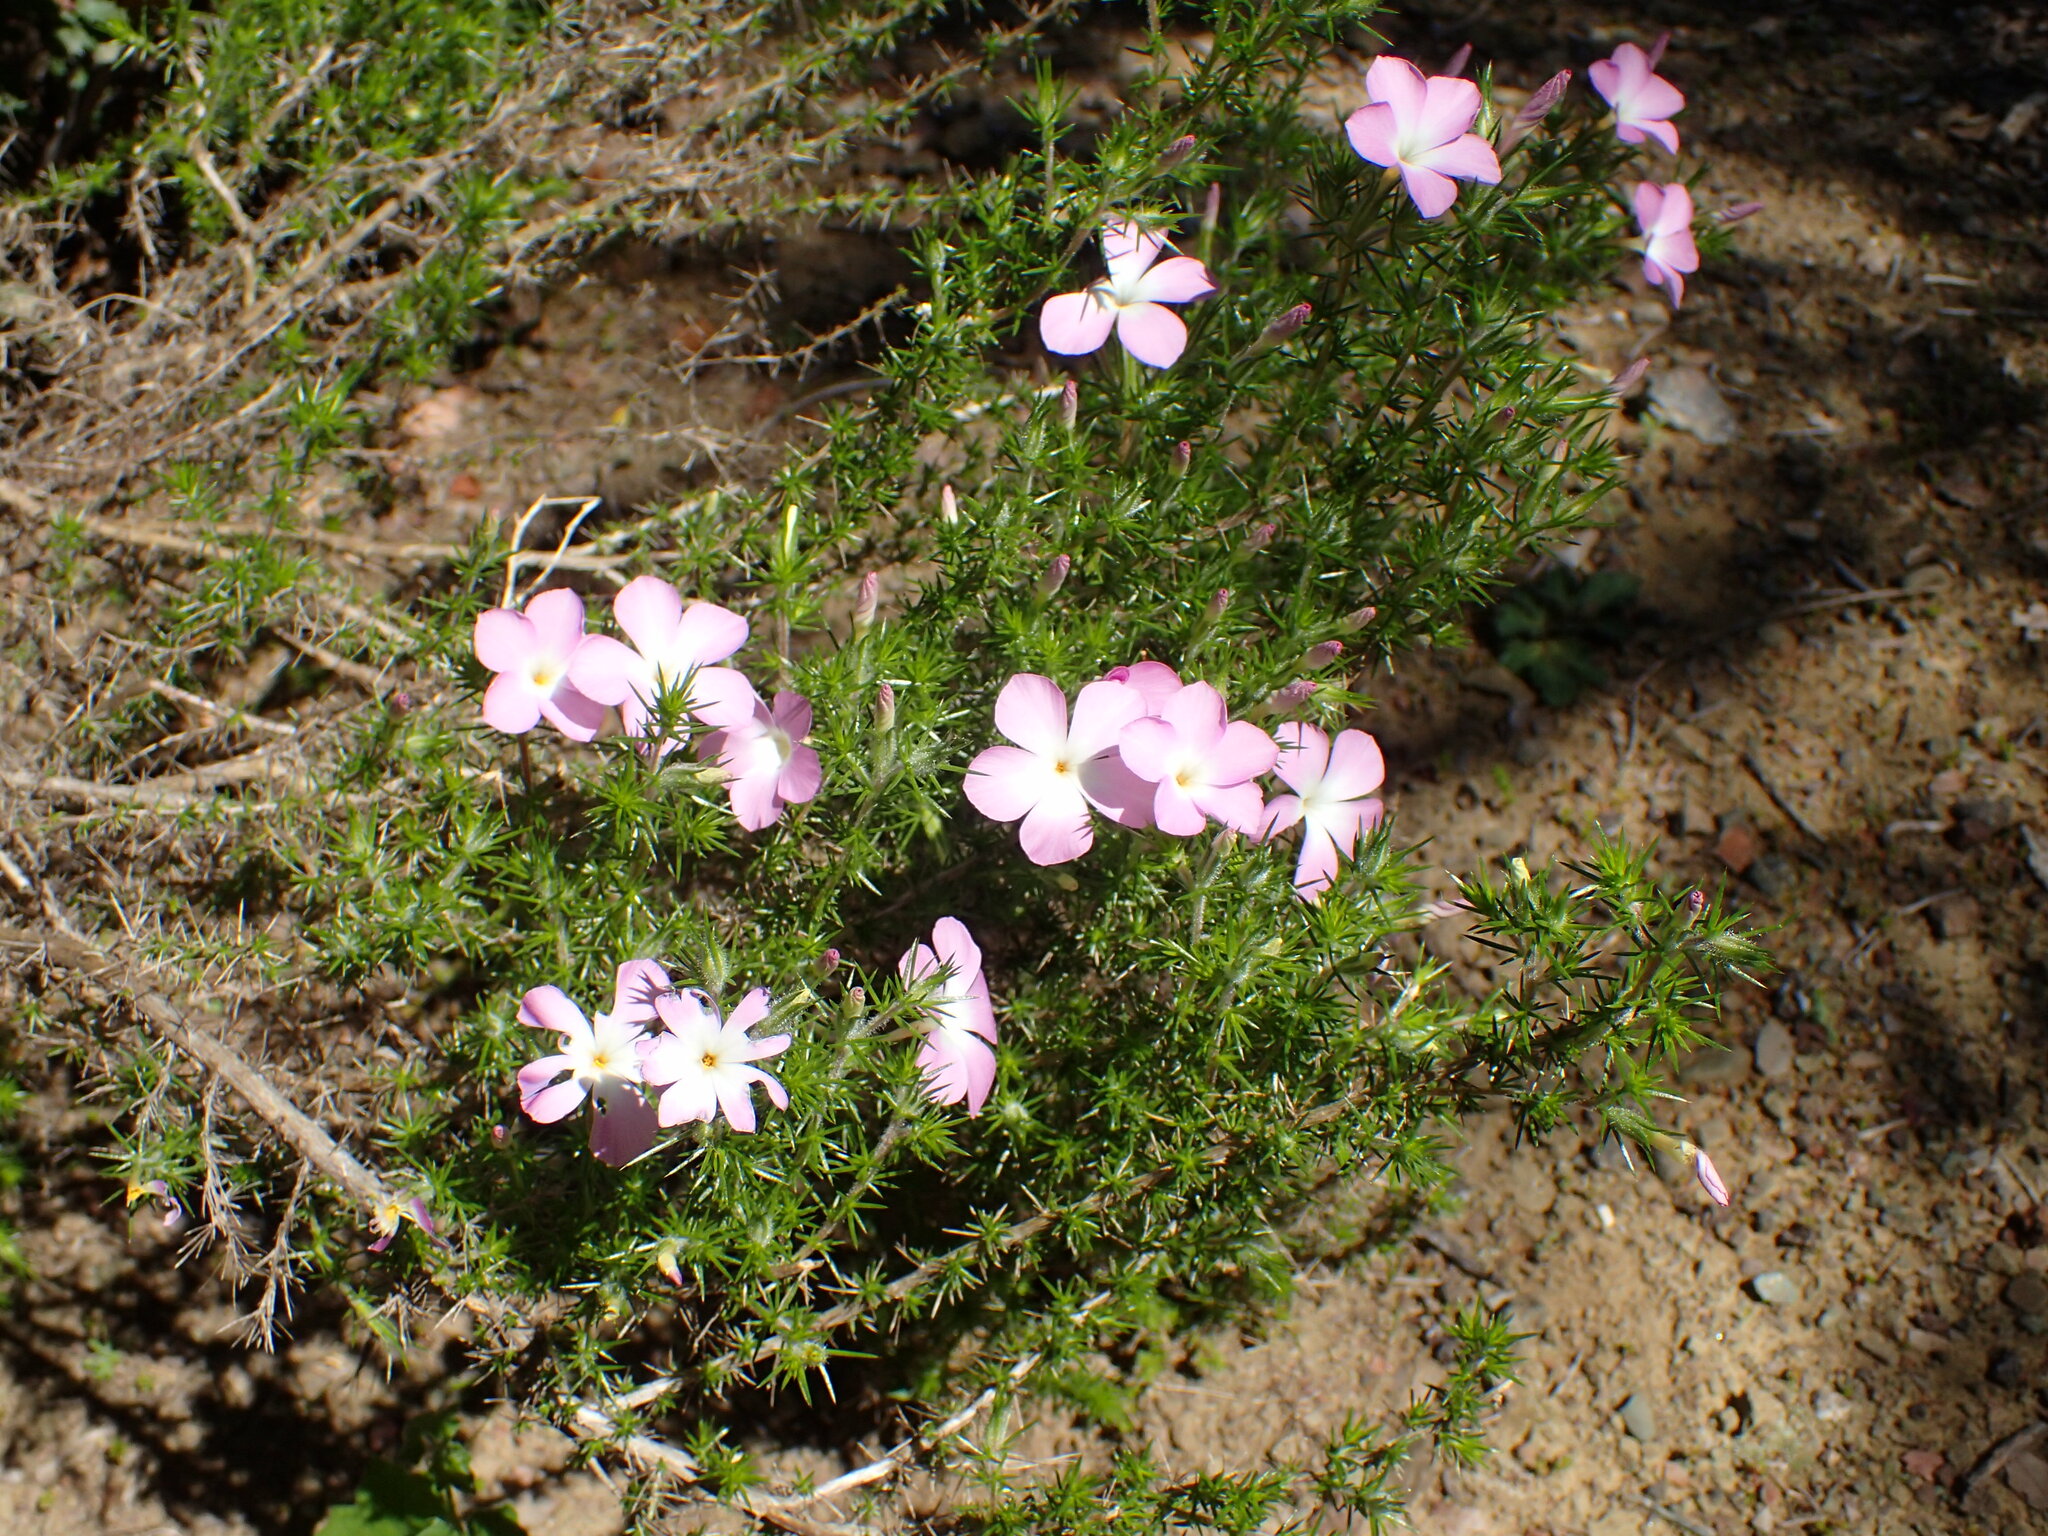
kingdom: Plantae
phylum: Tracheophyta
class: Magnoliopsida
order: Ericales
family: Polemoniaceae
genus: Linanthus
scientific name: Linanthus californicus
